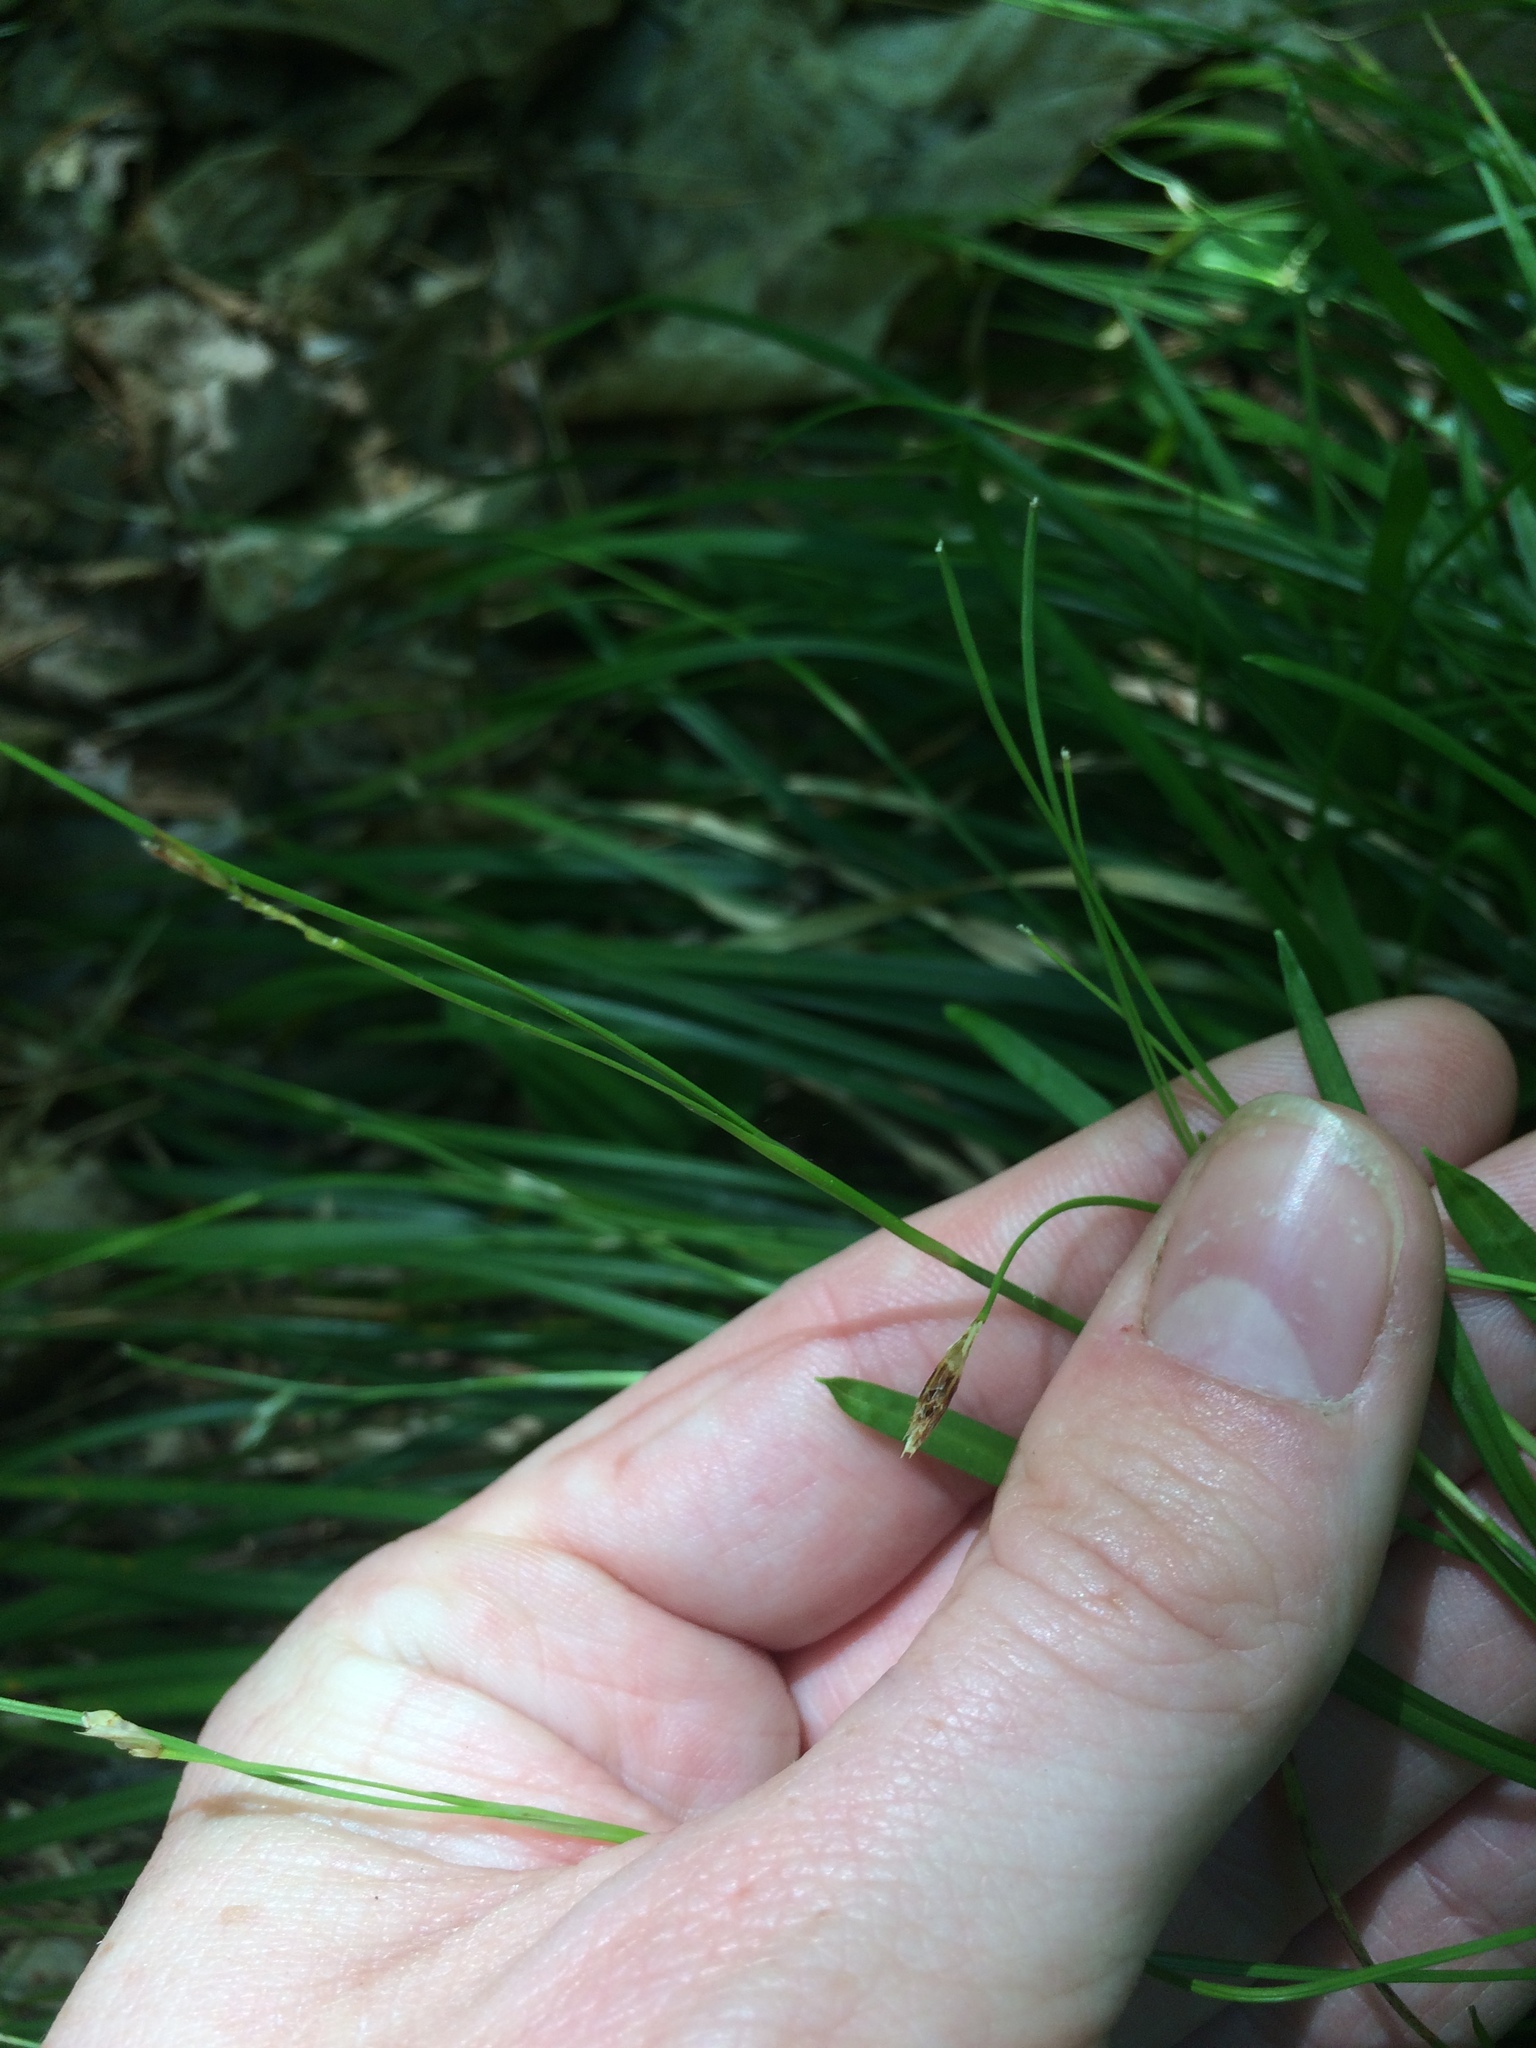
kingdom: Plantae
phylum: Tracheophyta
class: Liliopsida
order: Poales
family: Cyperaceae
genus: Carex
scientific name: Carex pedunculata
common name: Pedunculate sedge
